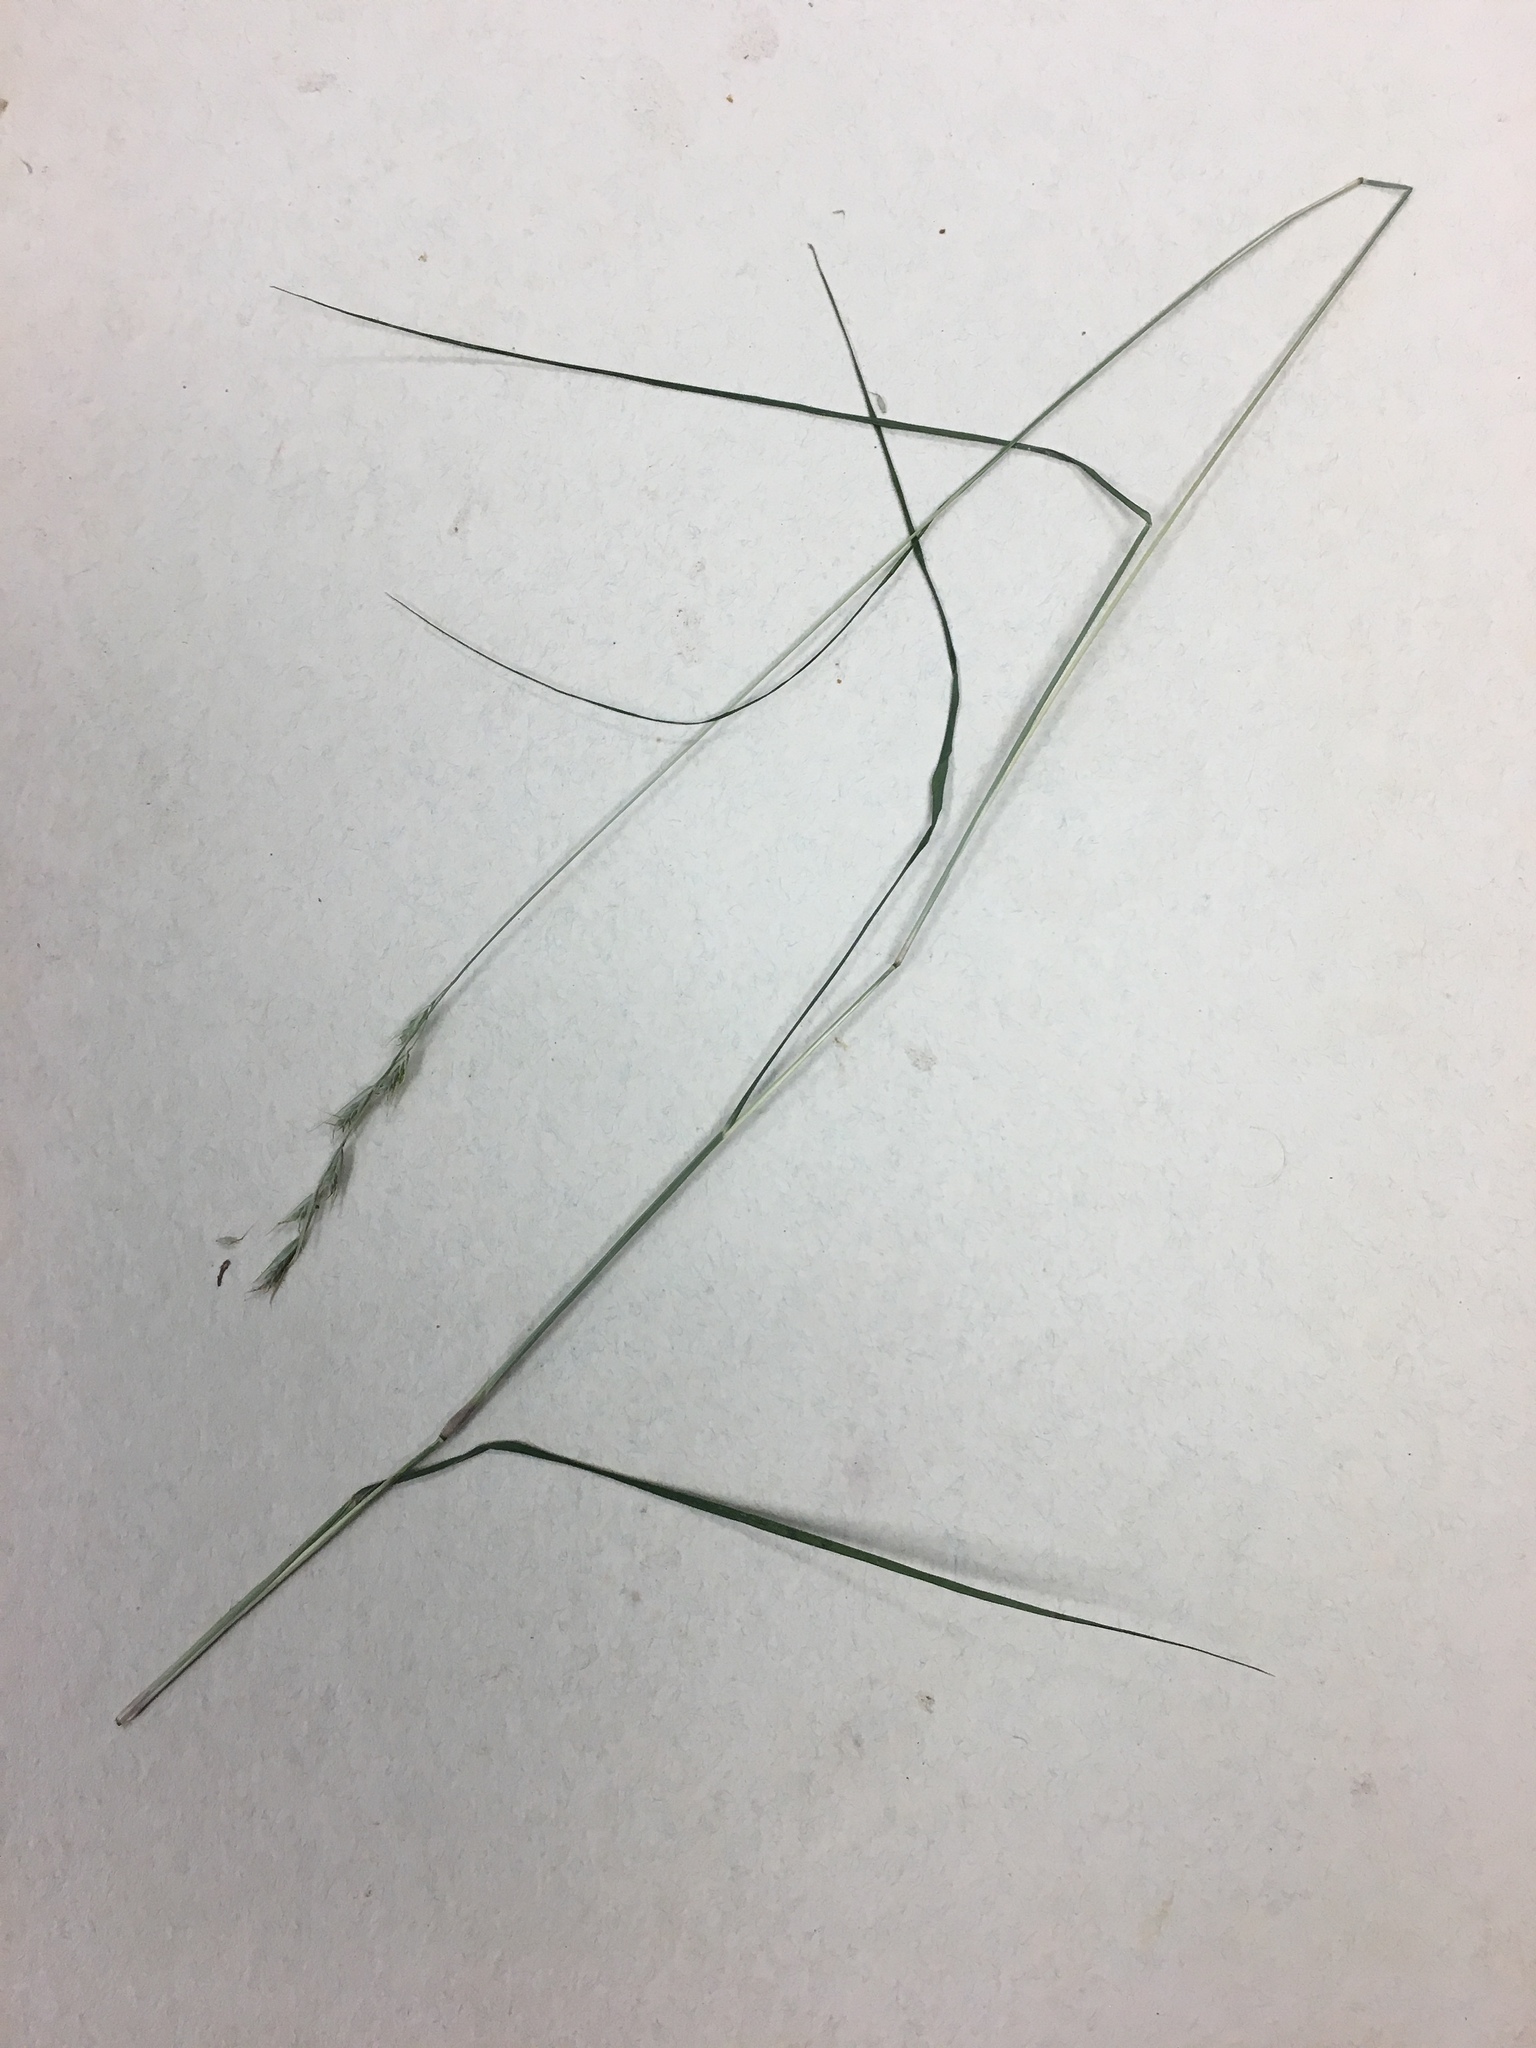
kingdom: Plantae
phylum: Tracheophyta
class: Liliopsida
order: Poales
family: Poaceae
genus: Danthonia
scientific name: Danthonia spicata
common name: Common wild oatgrass
